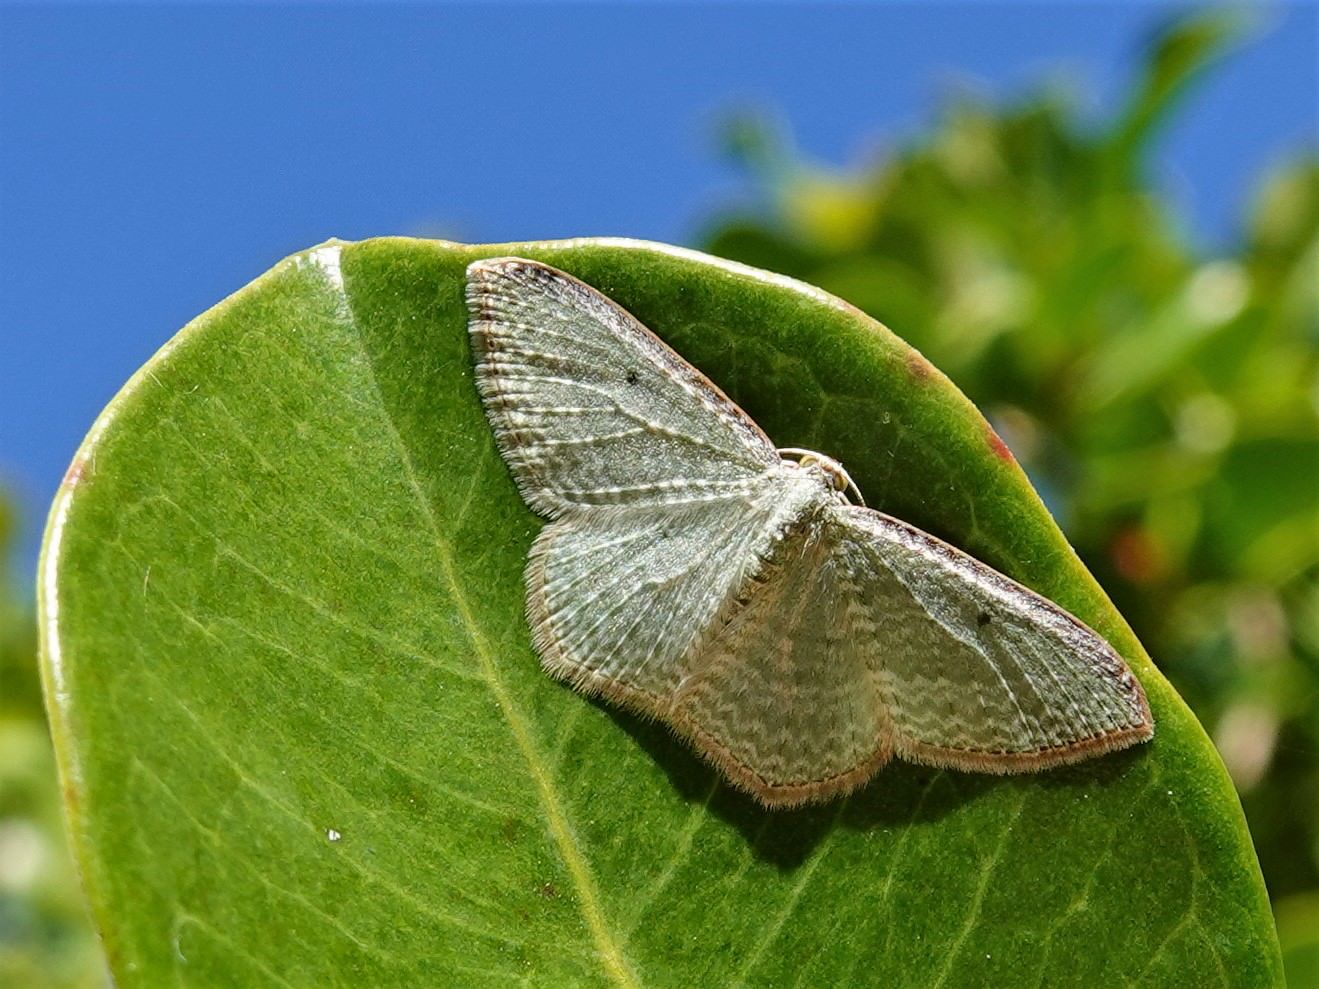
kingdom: Animalia
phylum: Arthropoda
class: Insecta
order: Lepidoptera
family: Geometridae
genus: Poecilasthena
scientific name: Poecilasthena pulchraria
